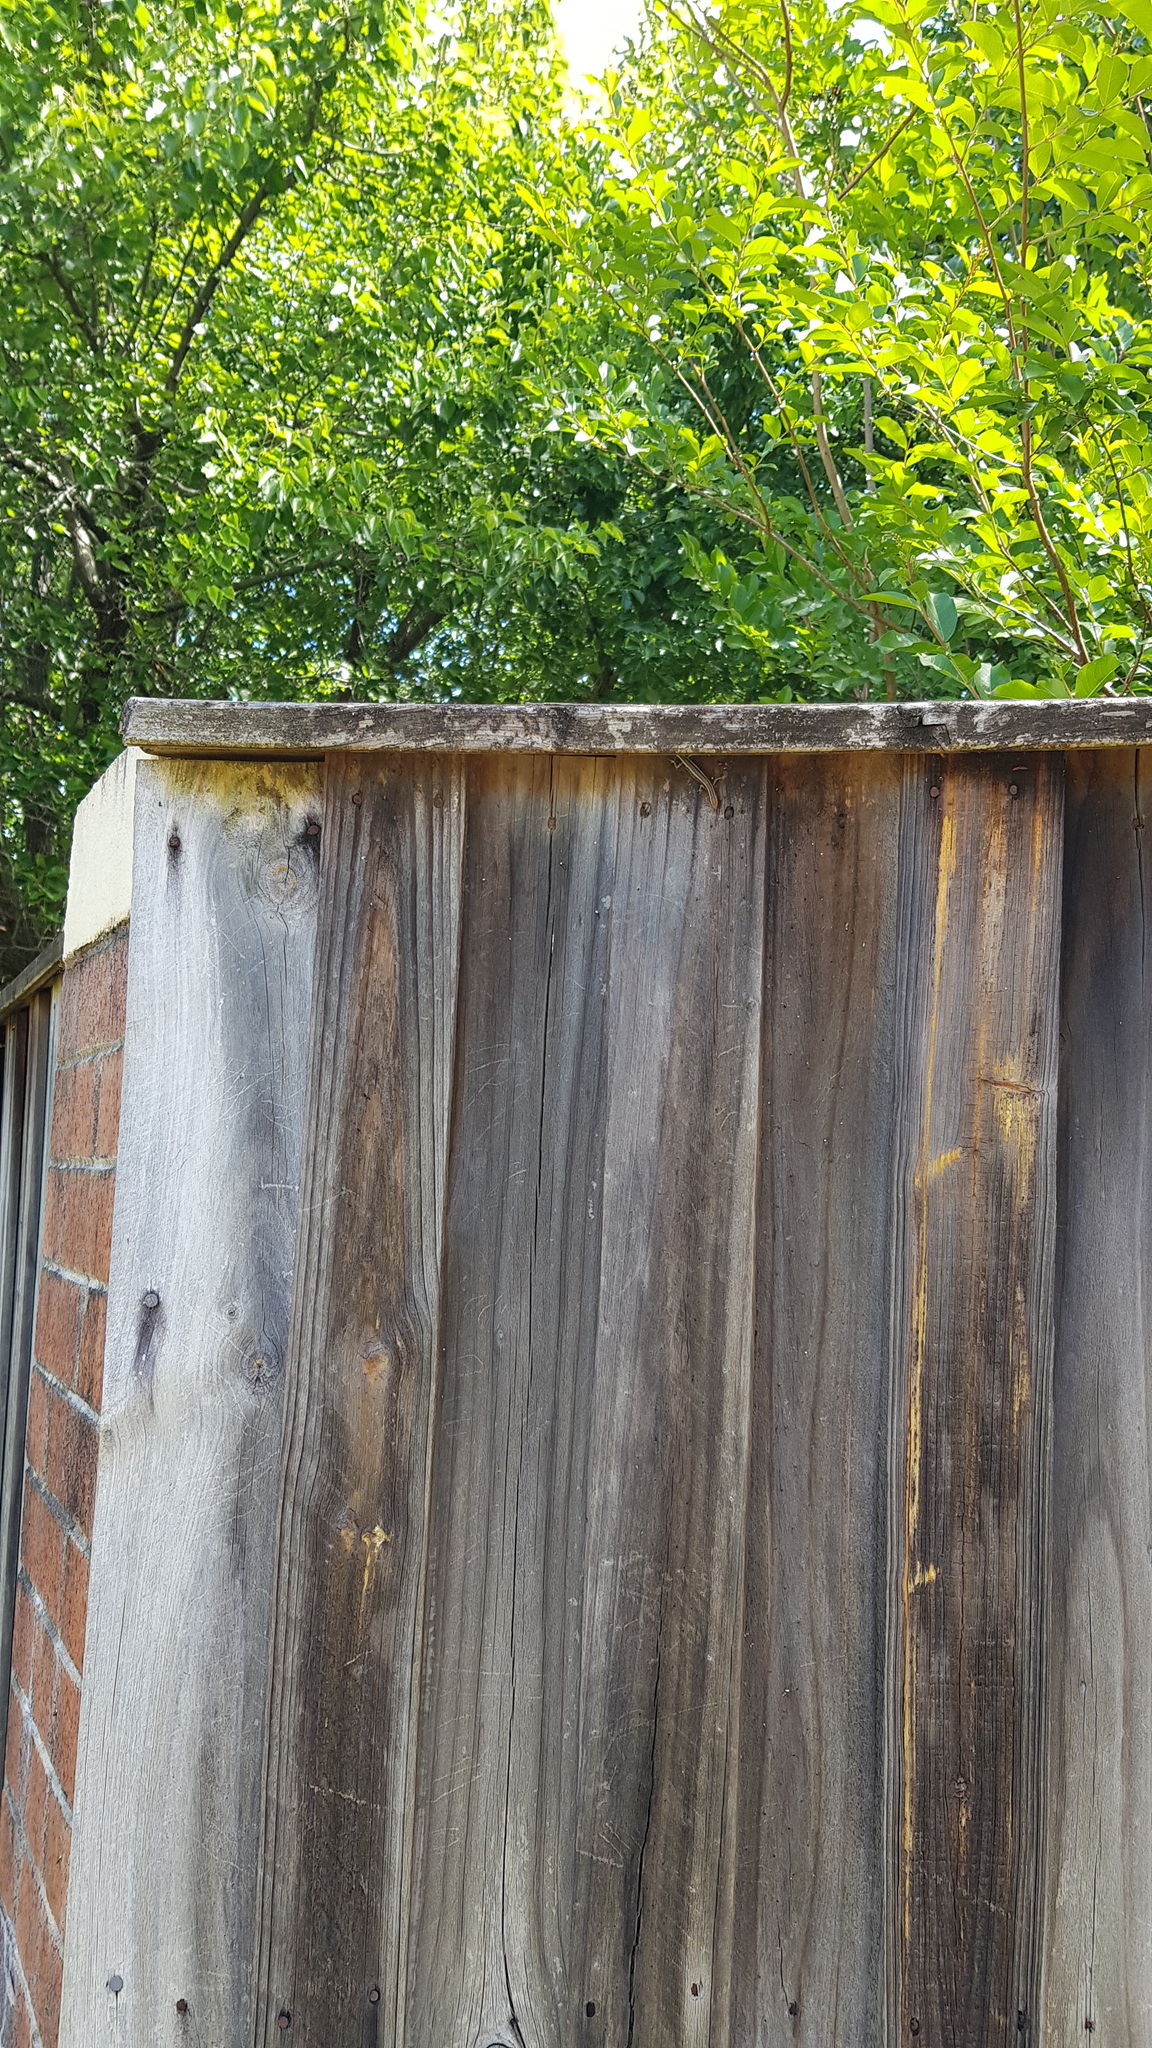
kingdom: Animalia
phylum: Chordata
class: Squamata
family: Scincidae
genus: Cryptoblepharus
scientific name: Cryptoblepharus pulcher
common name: Elegant snake-eyed skink
